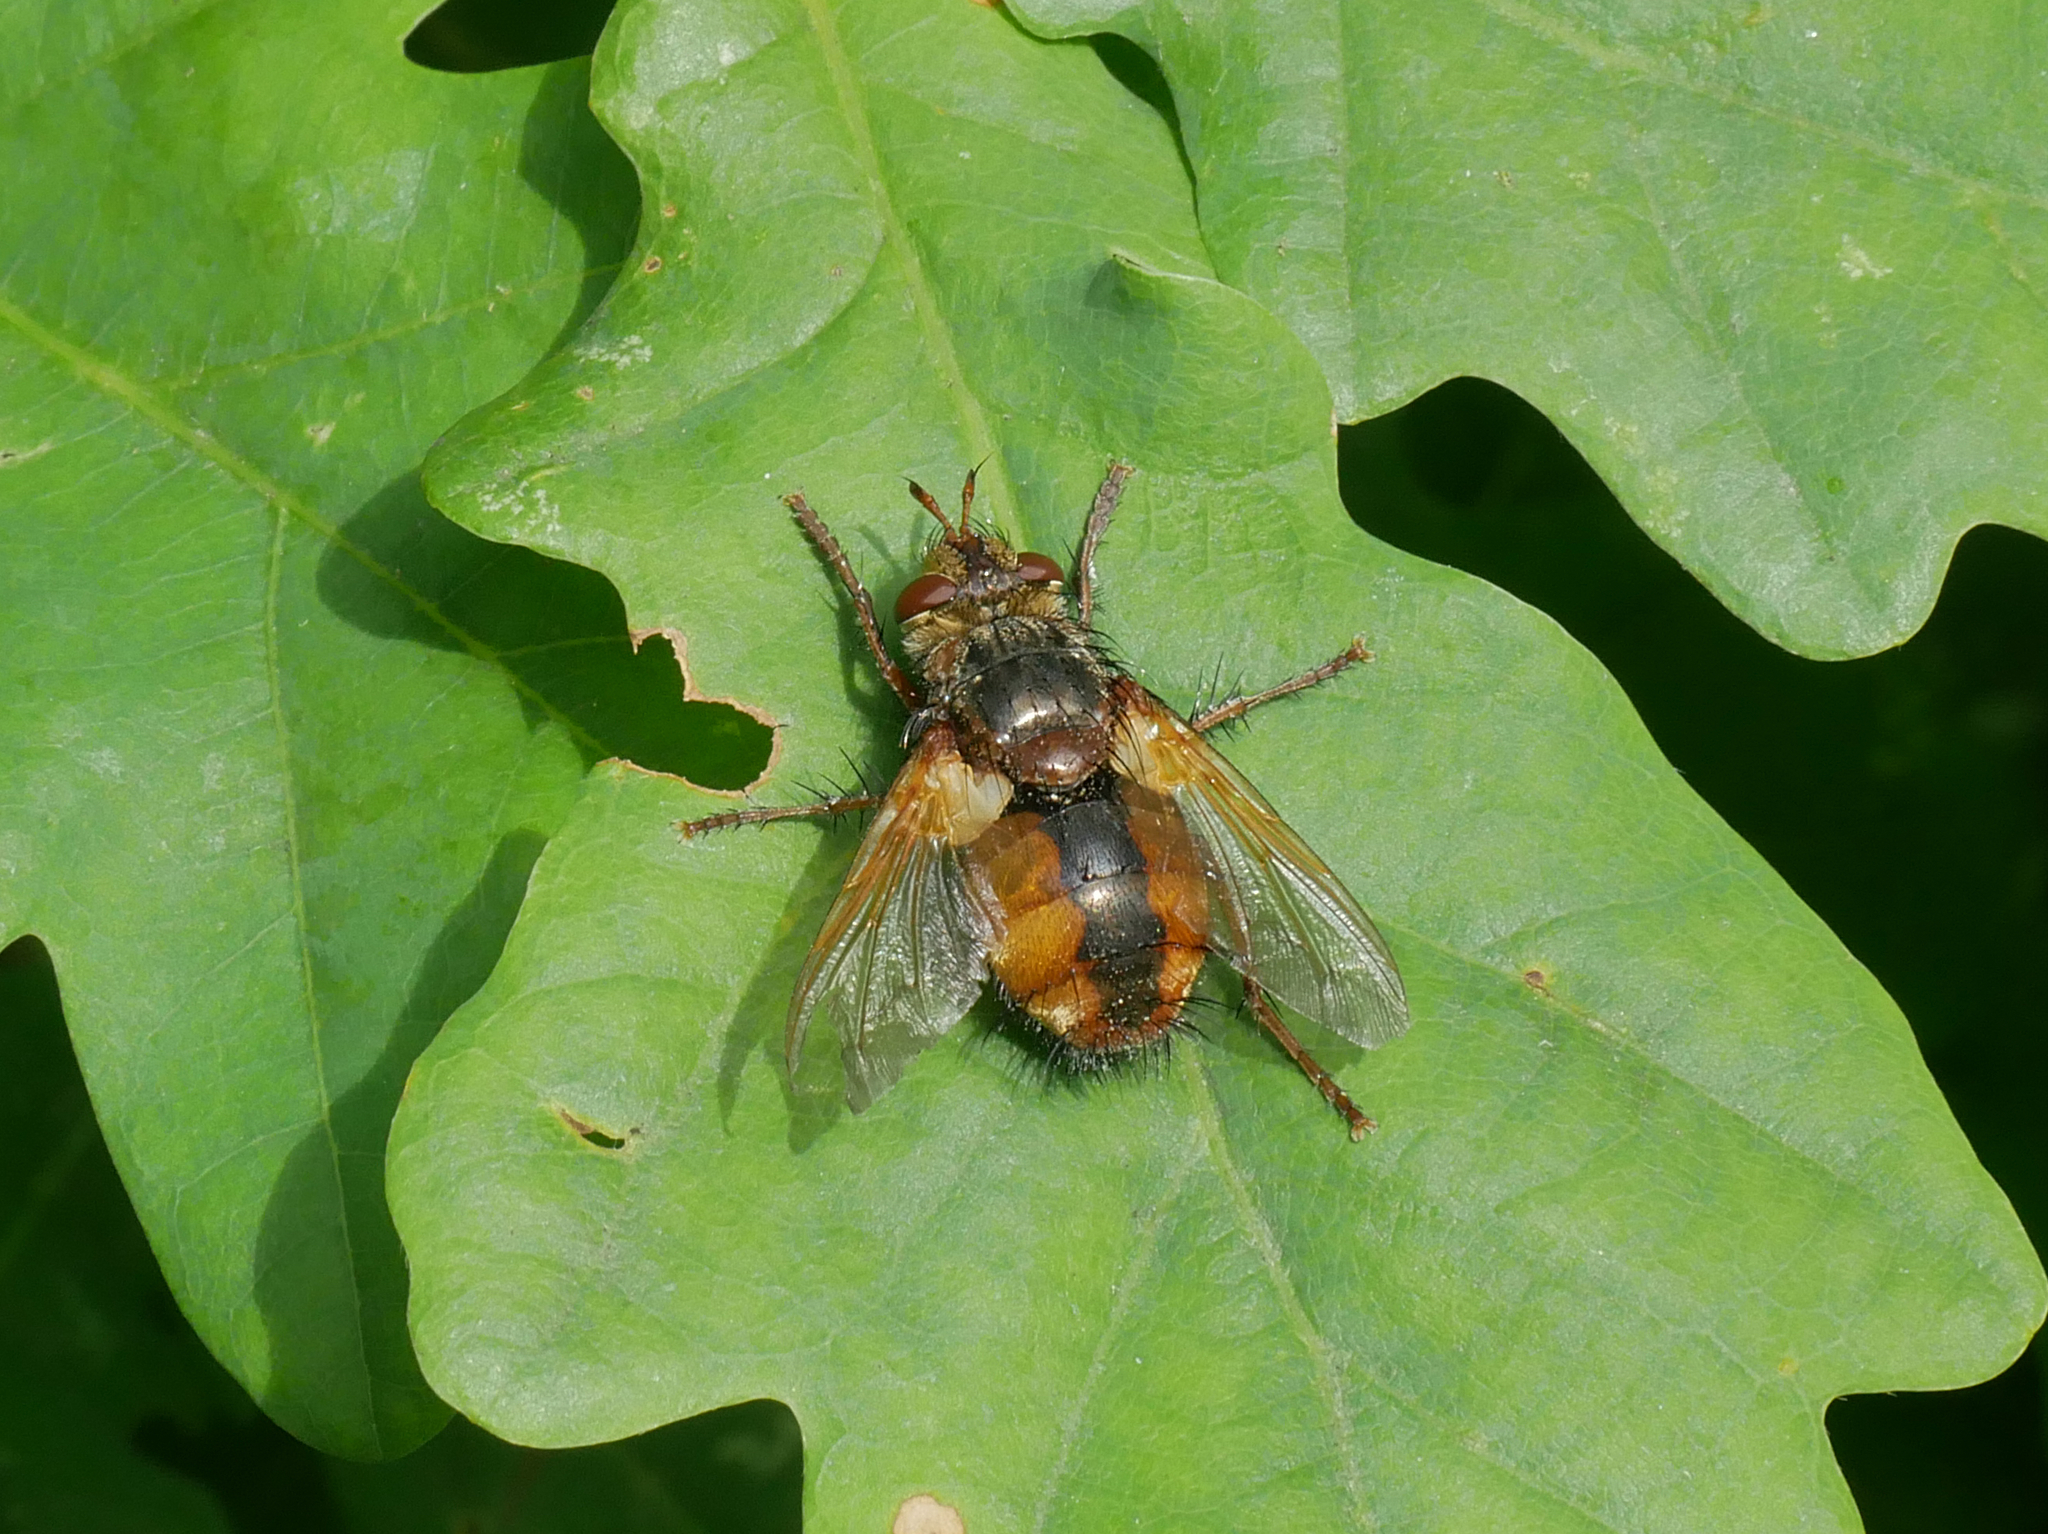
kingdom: Animalia
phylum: Arthropoda
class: Insecta
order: Diptera
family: Tachinidae
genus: Tachina
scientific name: Tachina fera
